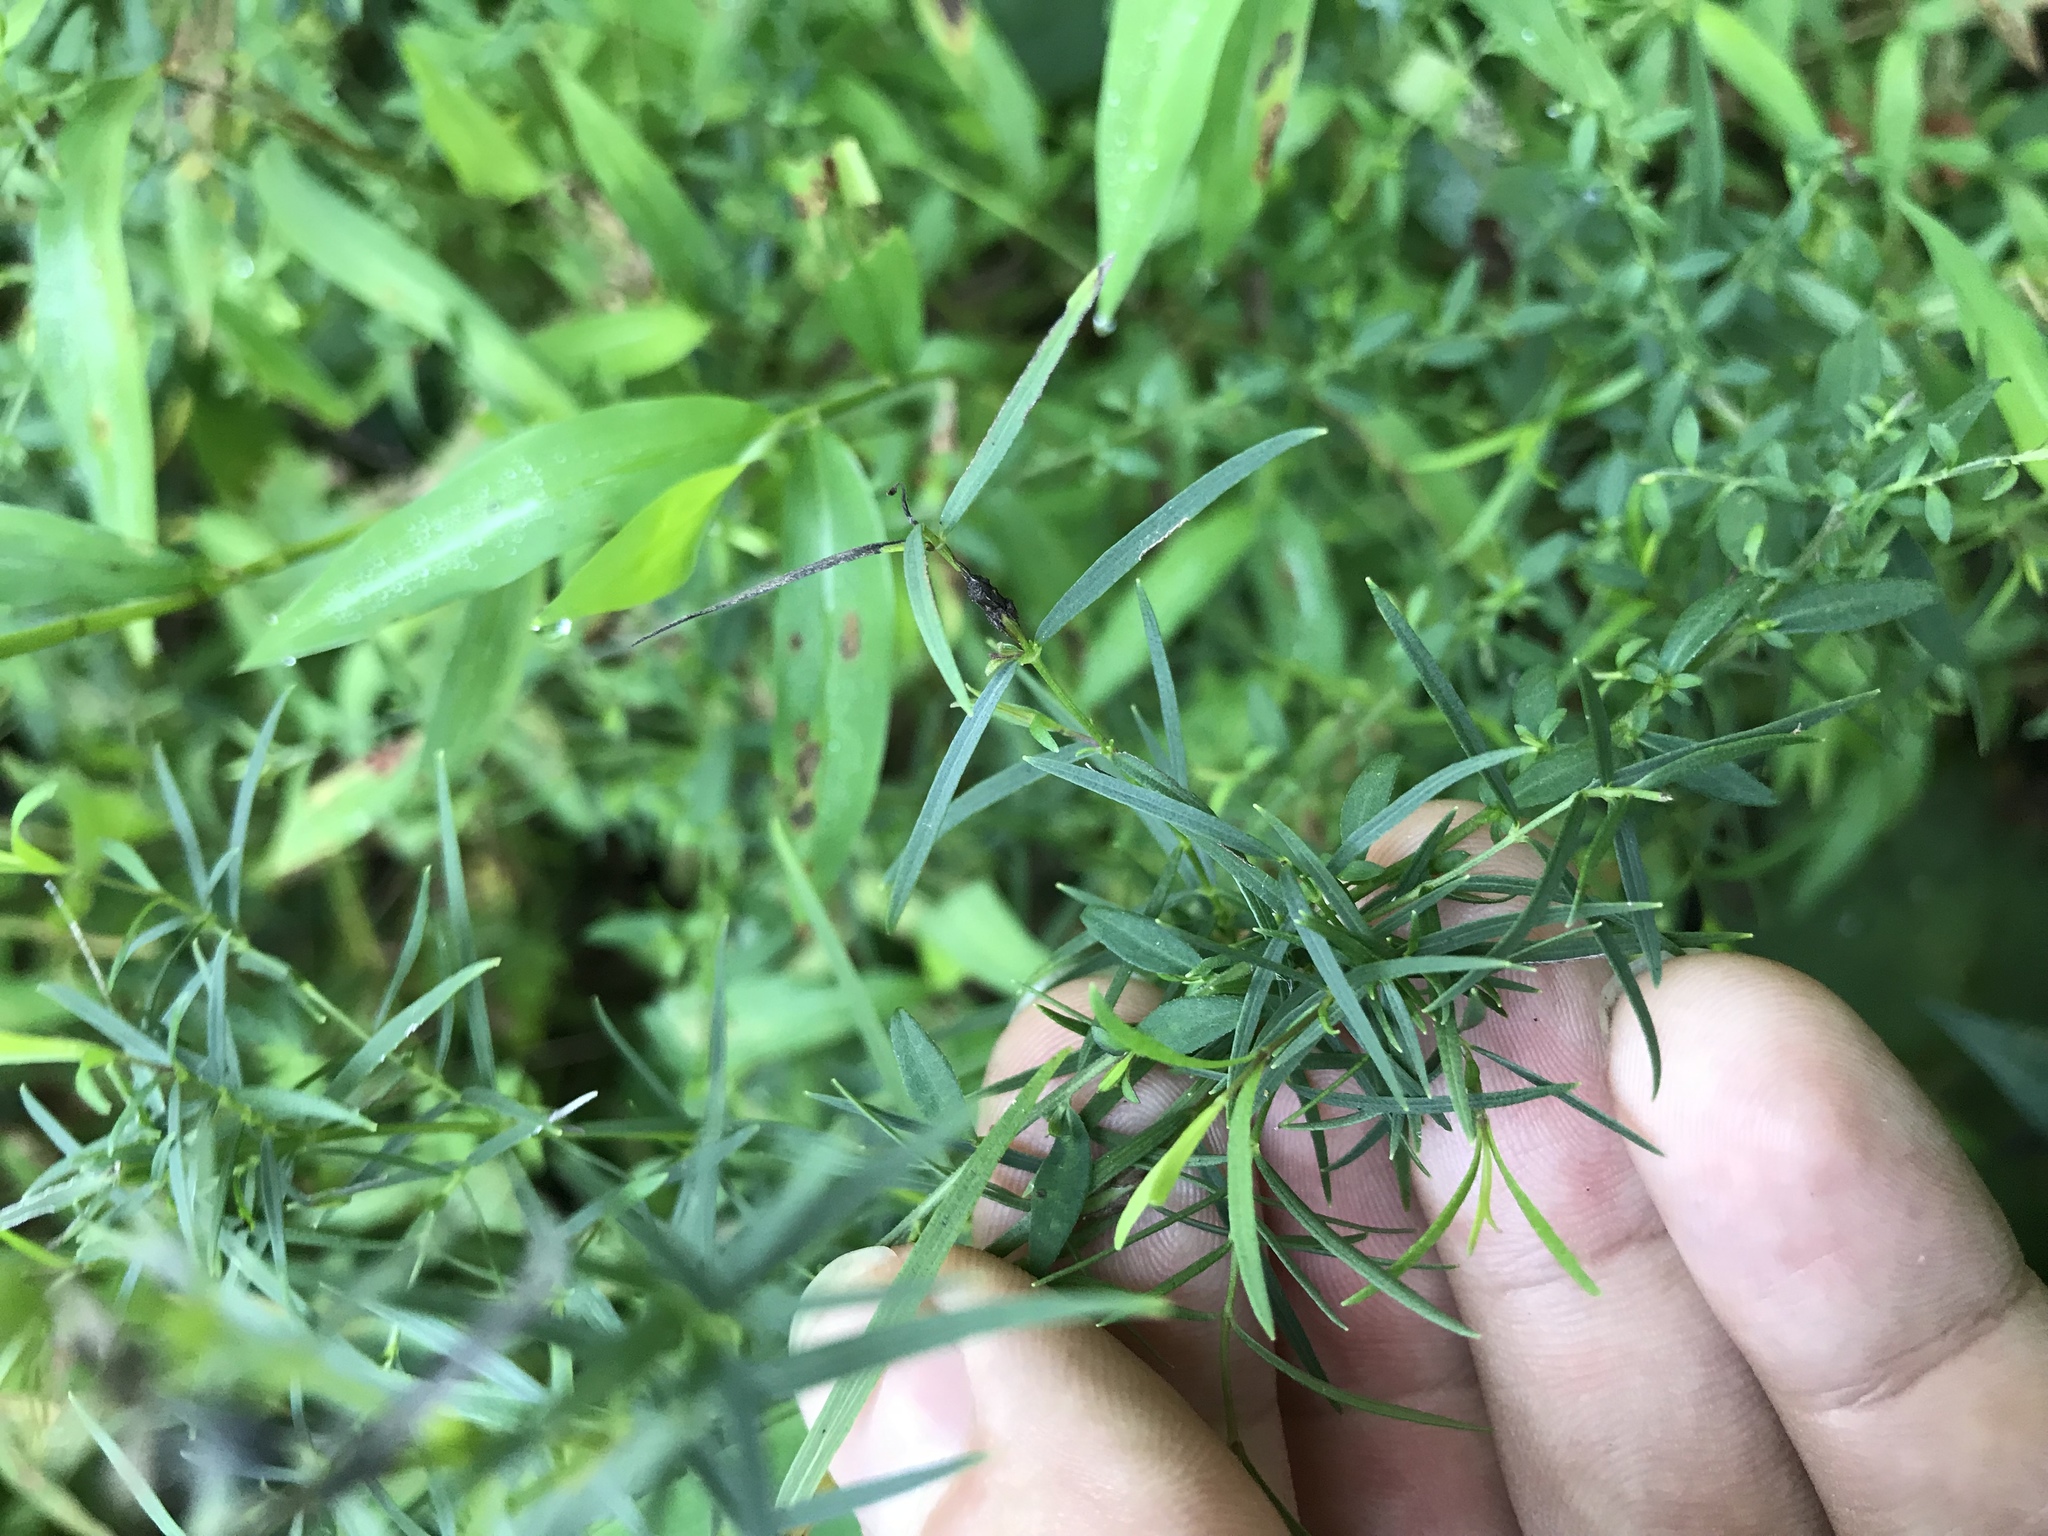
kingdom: Plantae
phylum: Tracheophyta
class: Magnoliopsida
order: Lamiales
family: Lamiaceae
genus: Pycnanthemum
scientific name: Pycnanthemum tenuifolium
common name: Narrow-leaf mountain-mint
